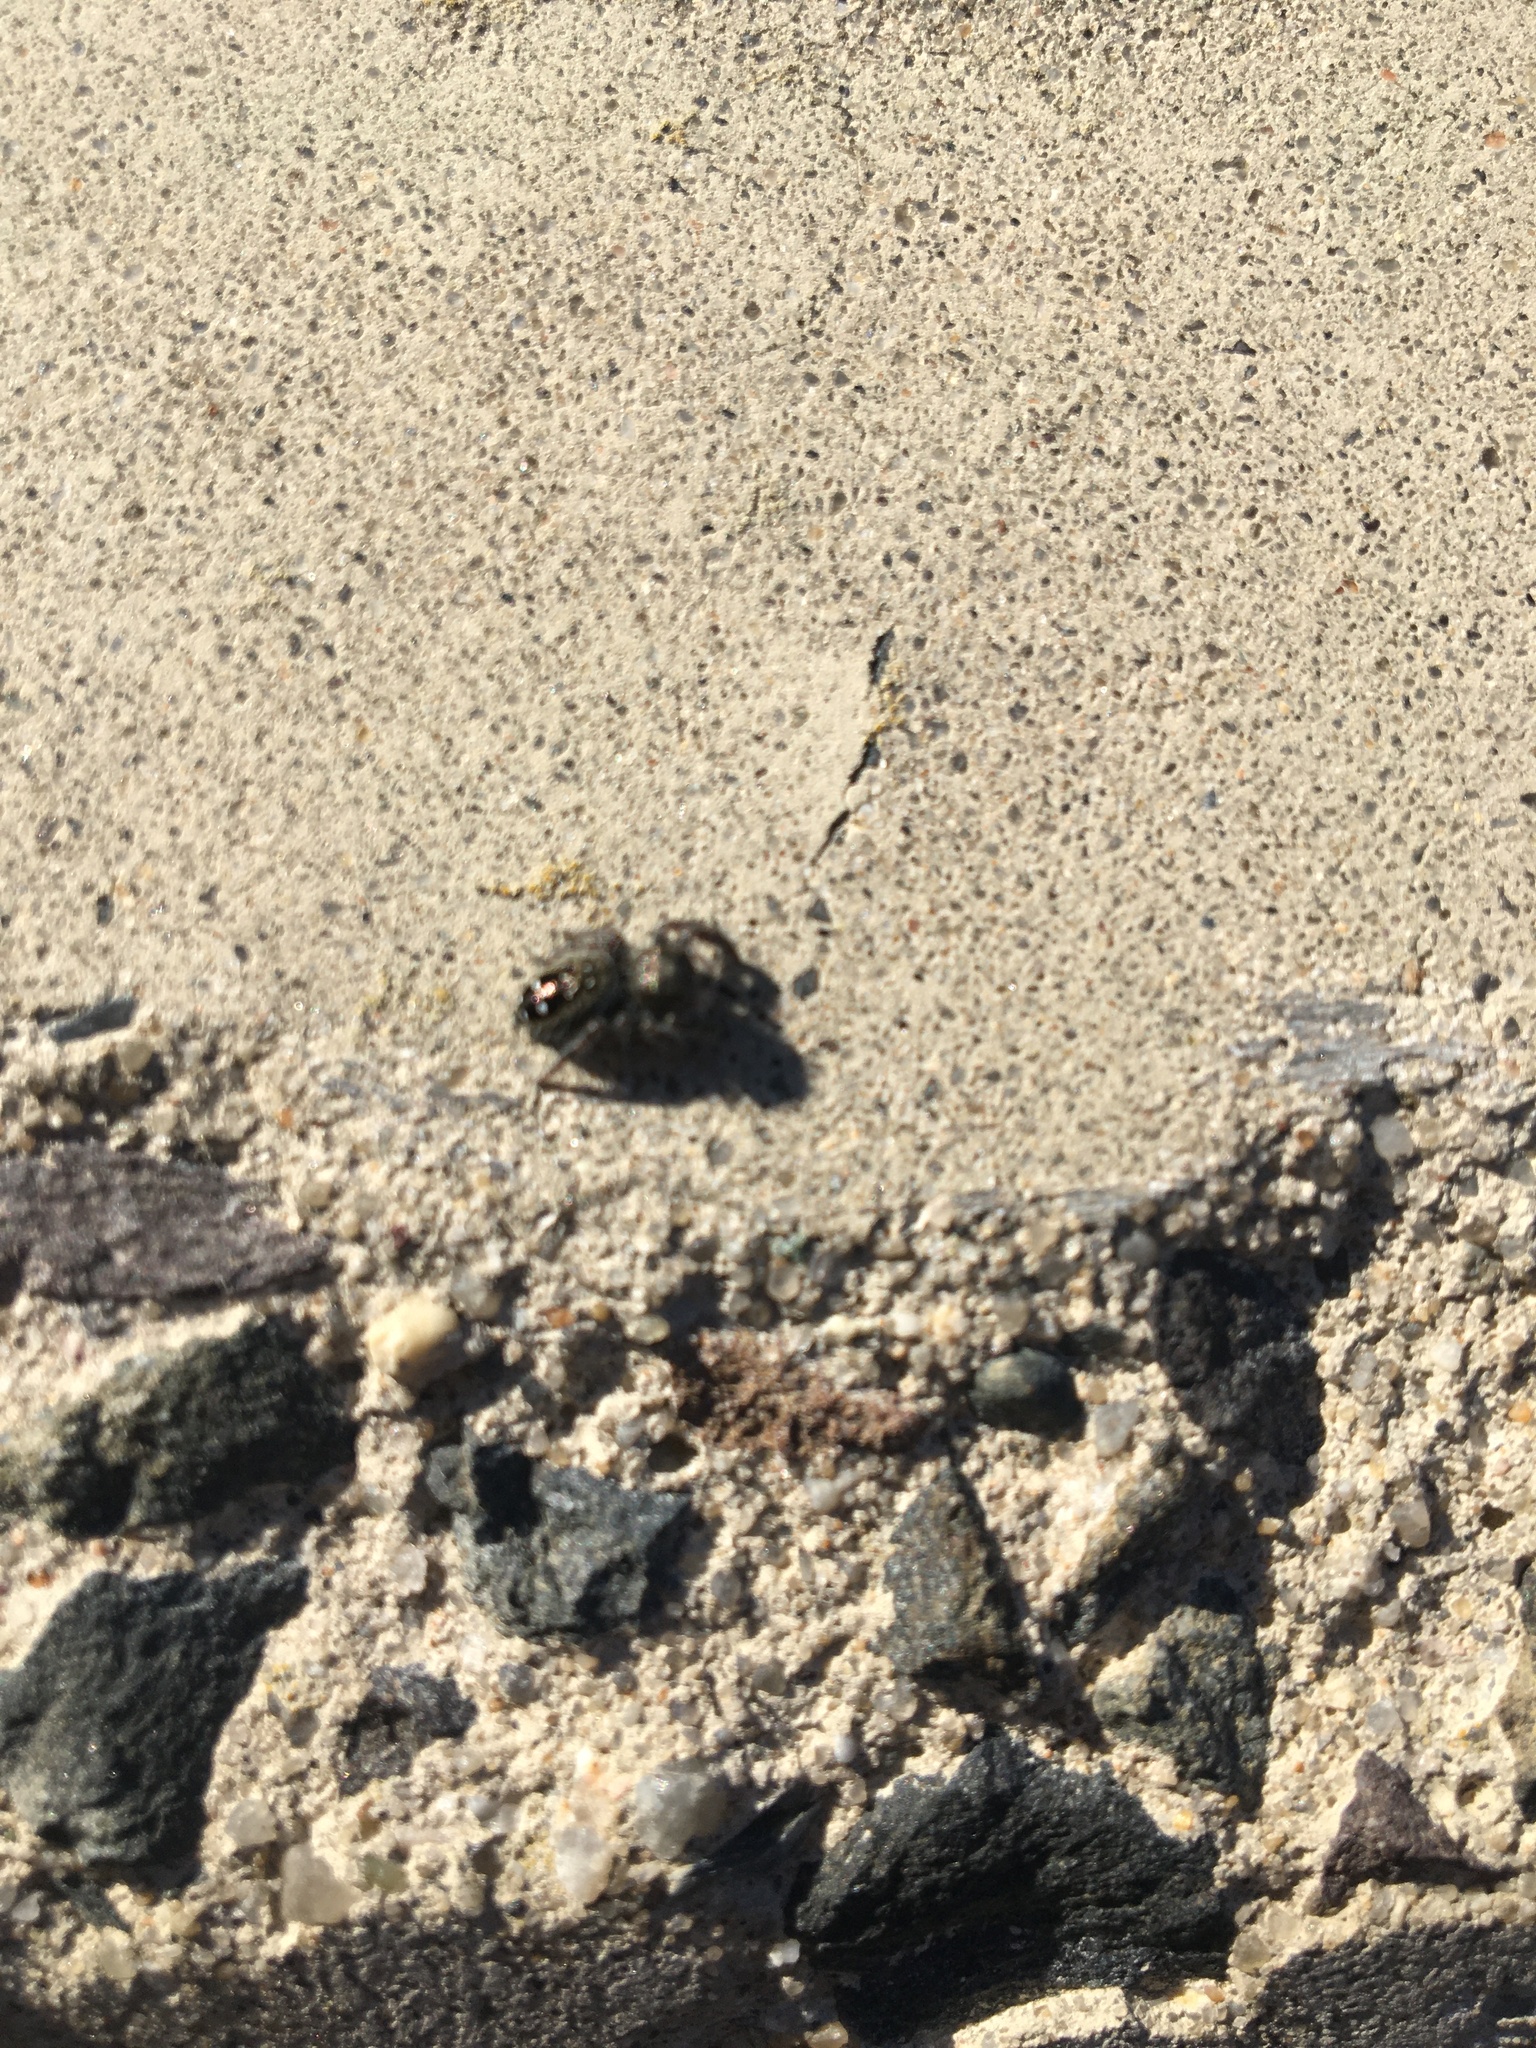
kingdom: Animalia
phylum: Arthropoda
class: Arachnida
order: Araneae
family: Salticidae
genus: Phidippus
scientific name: Phidippus purpuratus
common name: Marbled purple jumping spider
